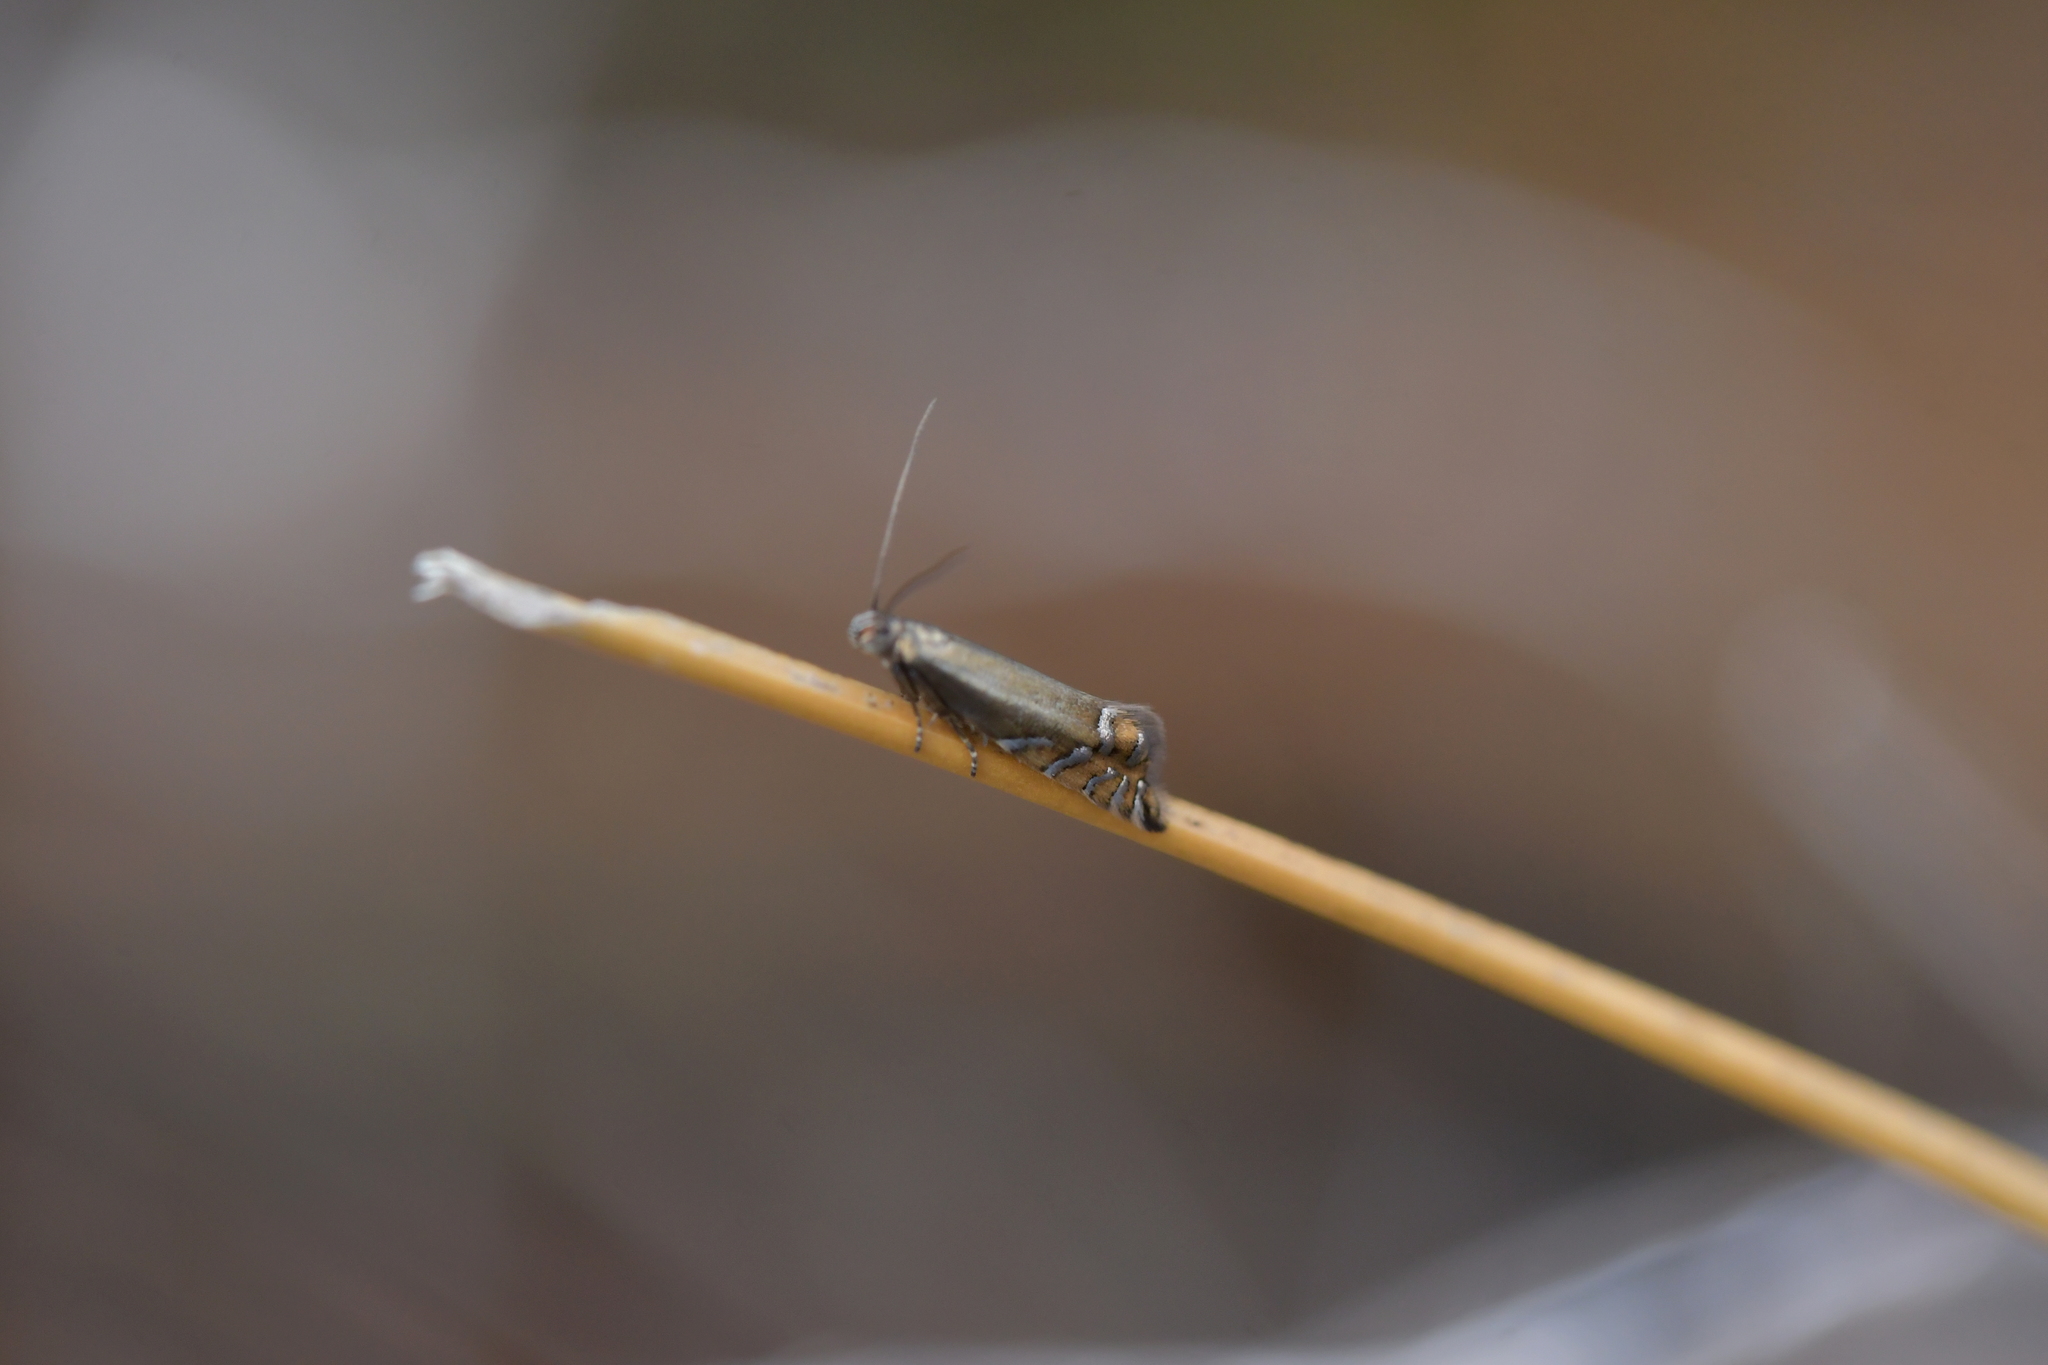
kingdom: Animalia
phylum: Arthropoda
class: Insecta
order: Lepidoptera
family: Glyphipterigidae
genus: Glyphipterix
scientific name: Glyphipterix scintilella
